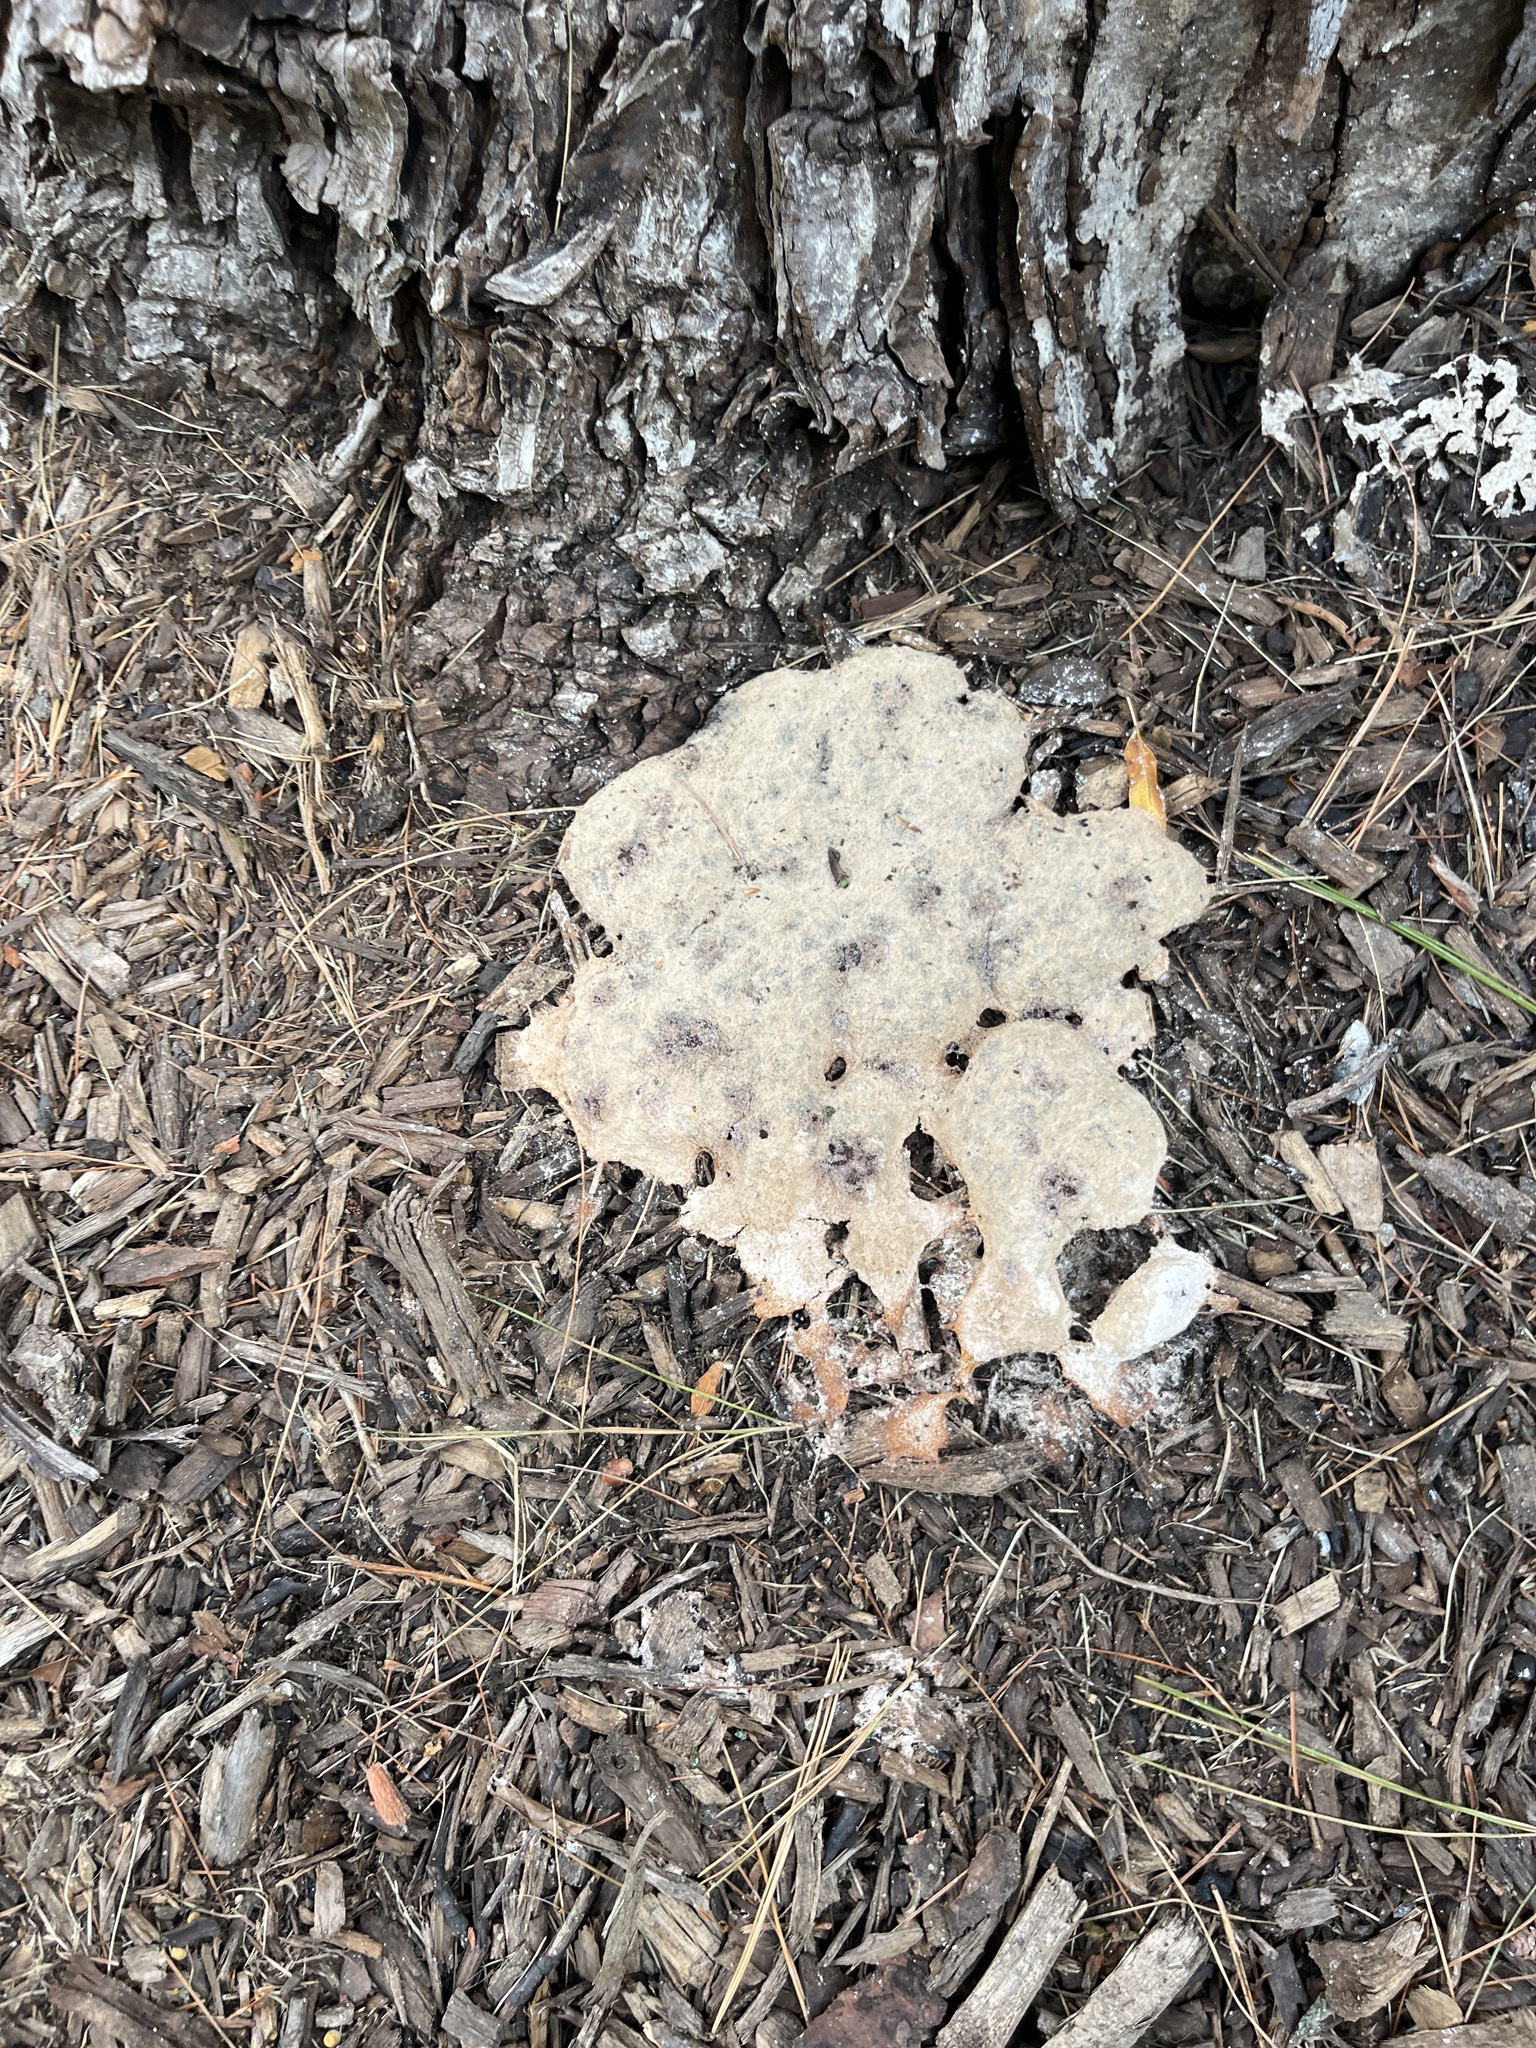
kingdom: Protozoa
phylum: Mycetozoa
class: Myxomycetes
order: Physarales
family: Physaraceae
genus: Fuligo
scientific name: Fuligo septica
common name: Dog vomit slime mold
